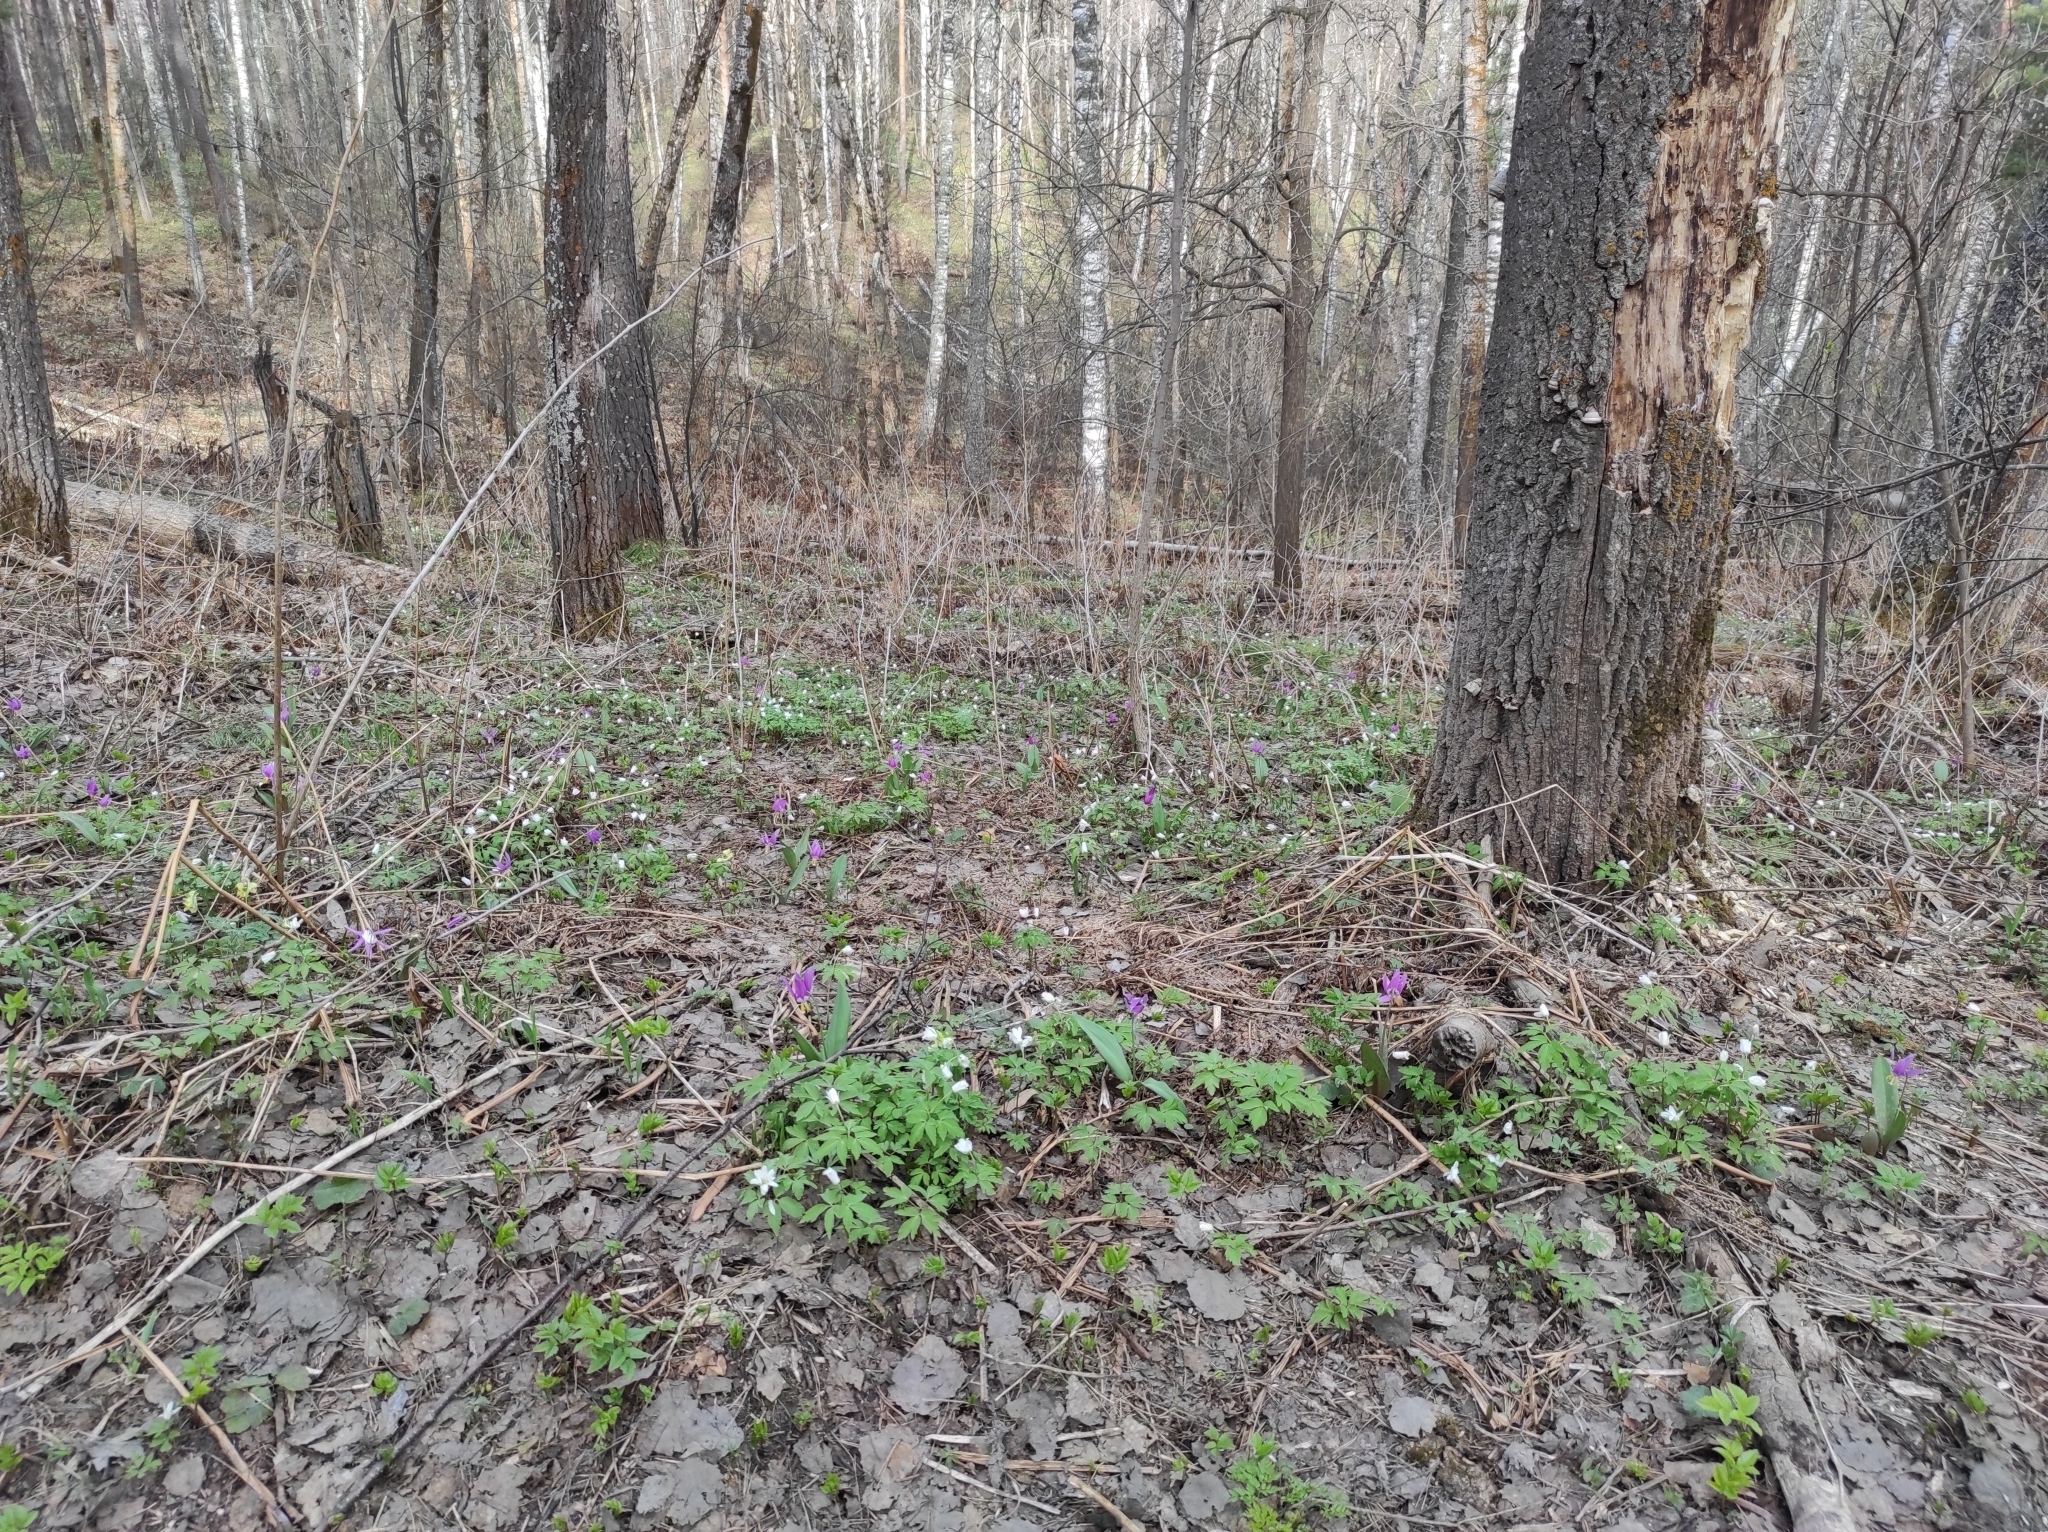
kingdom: Plantae
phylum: Tracheophyta
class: Magnoliopsida
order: Fagales
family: Betulaceae
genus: Betula
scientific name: Betula pendula
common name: Silver birch
